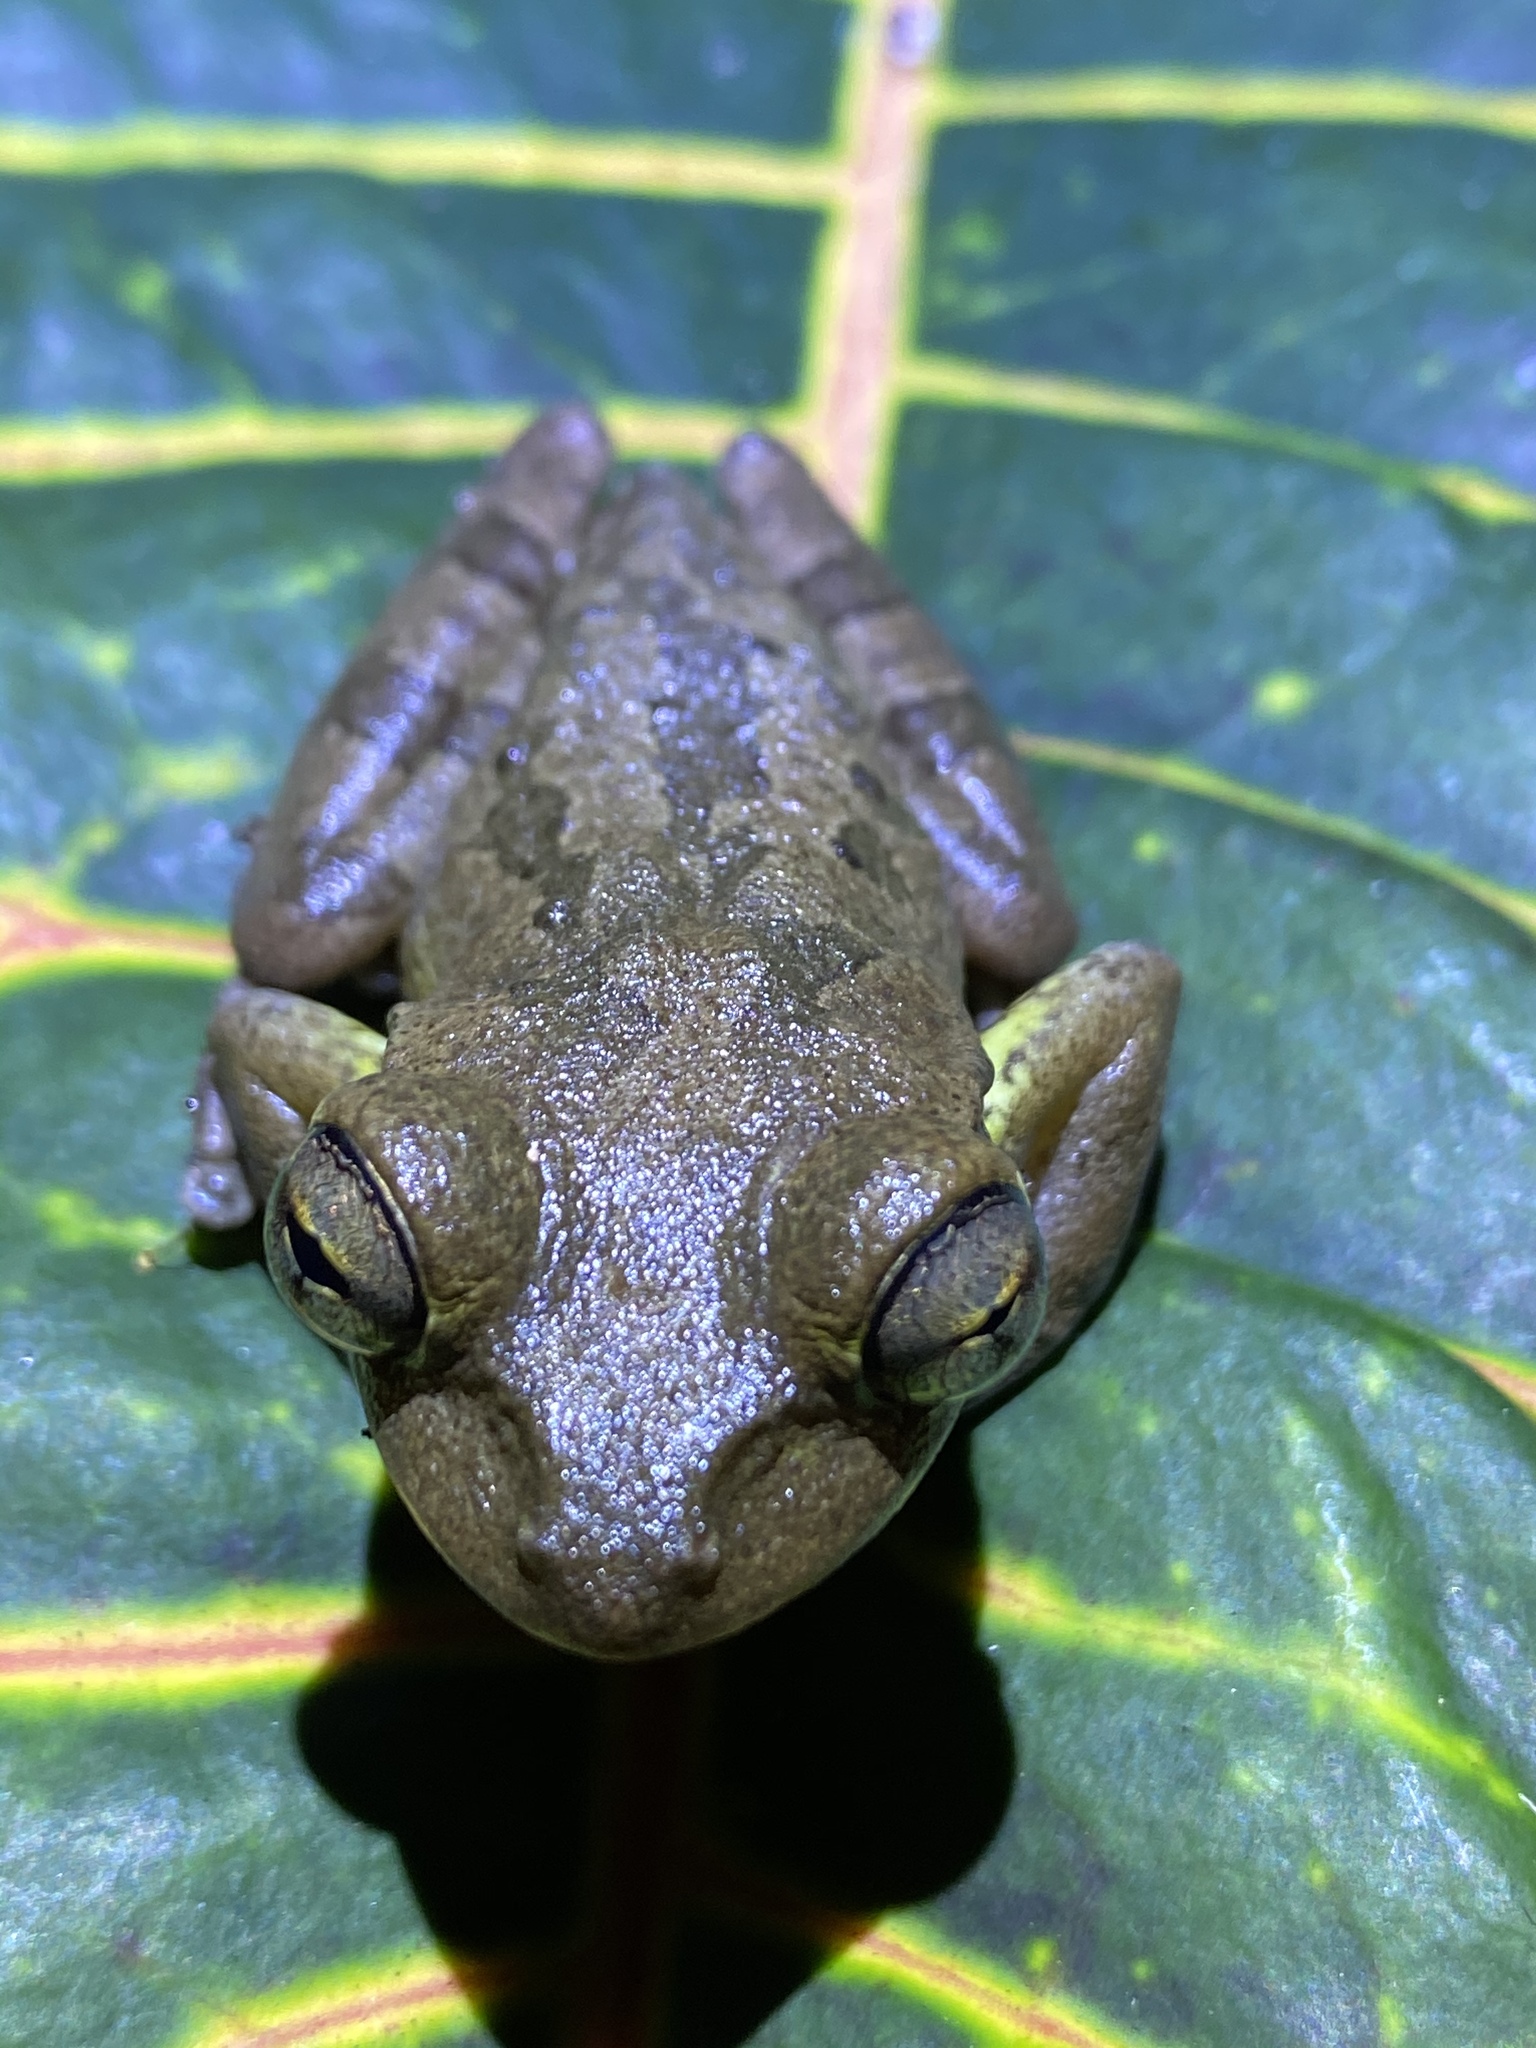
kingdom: Animalia
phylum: Chordata
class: Amphibia
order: Anura
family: Hylidae
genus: Osteopilus
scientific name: Osteopilus septentrionalis
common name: Cuban treefrog
